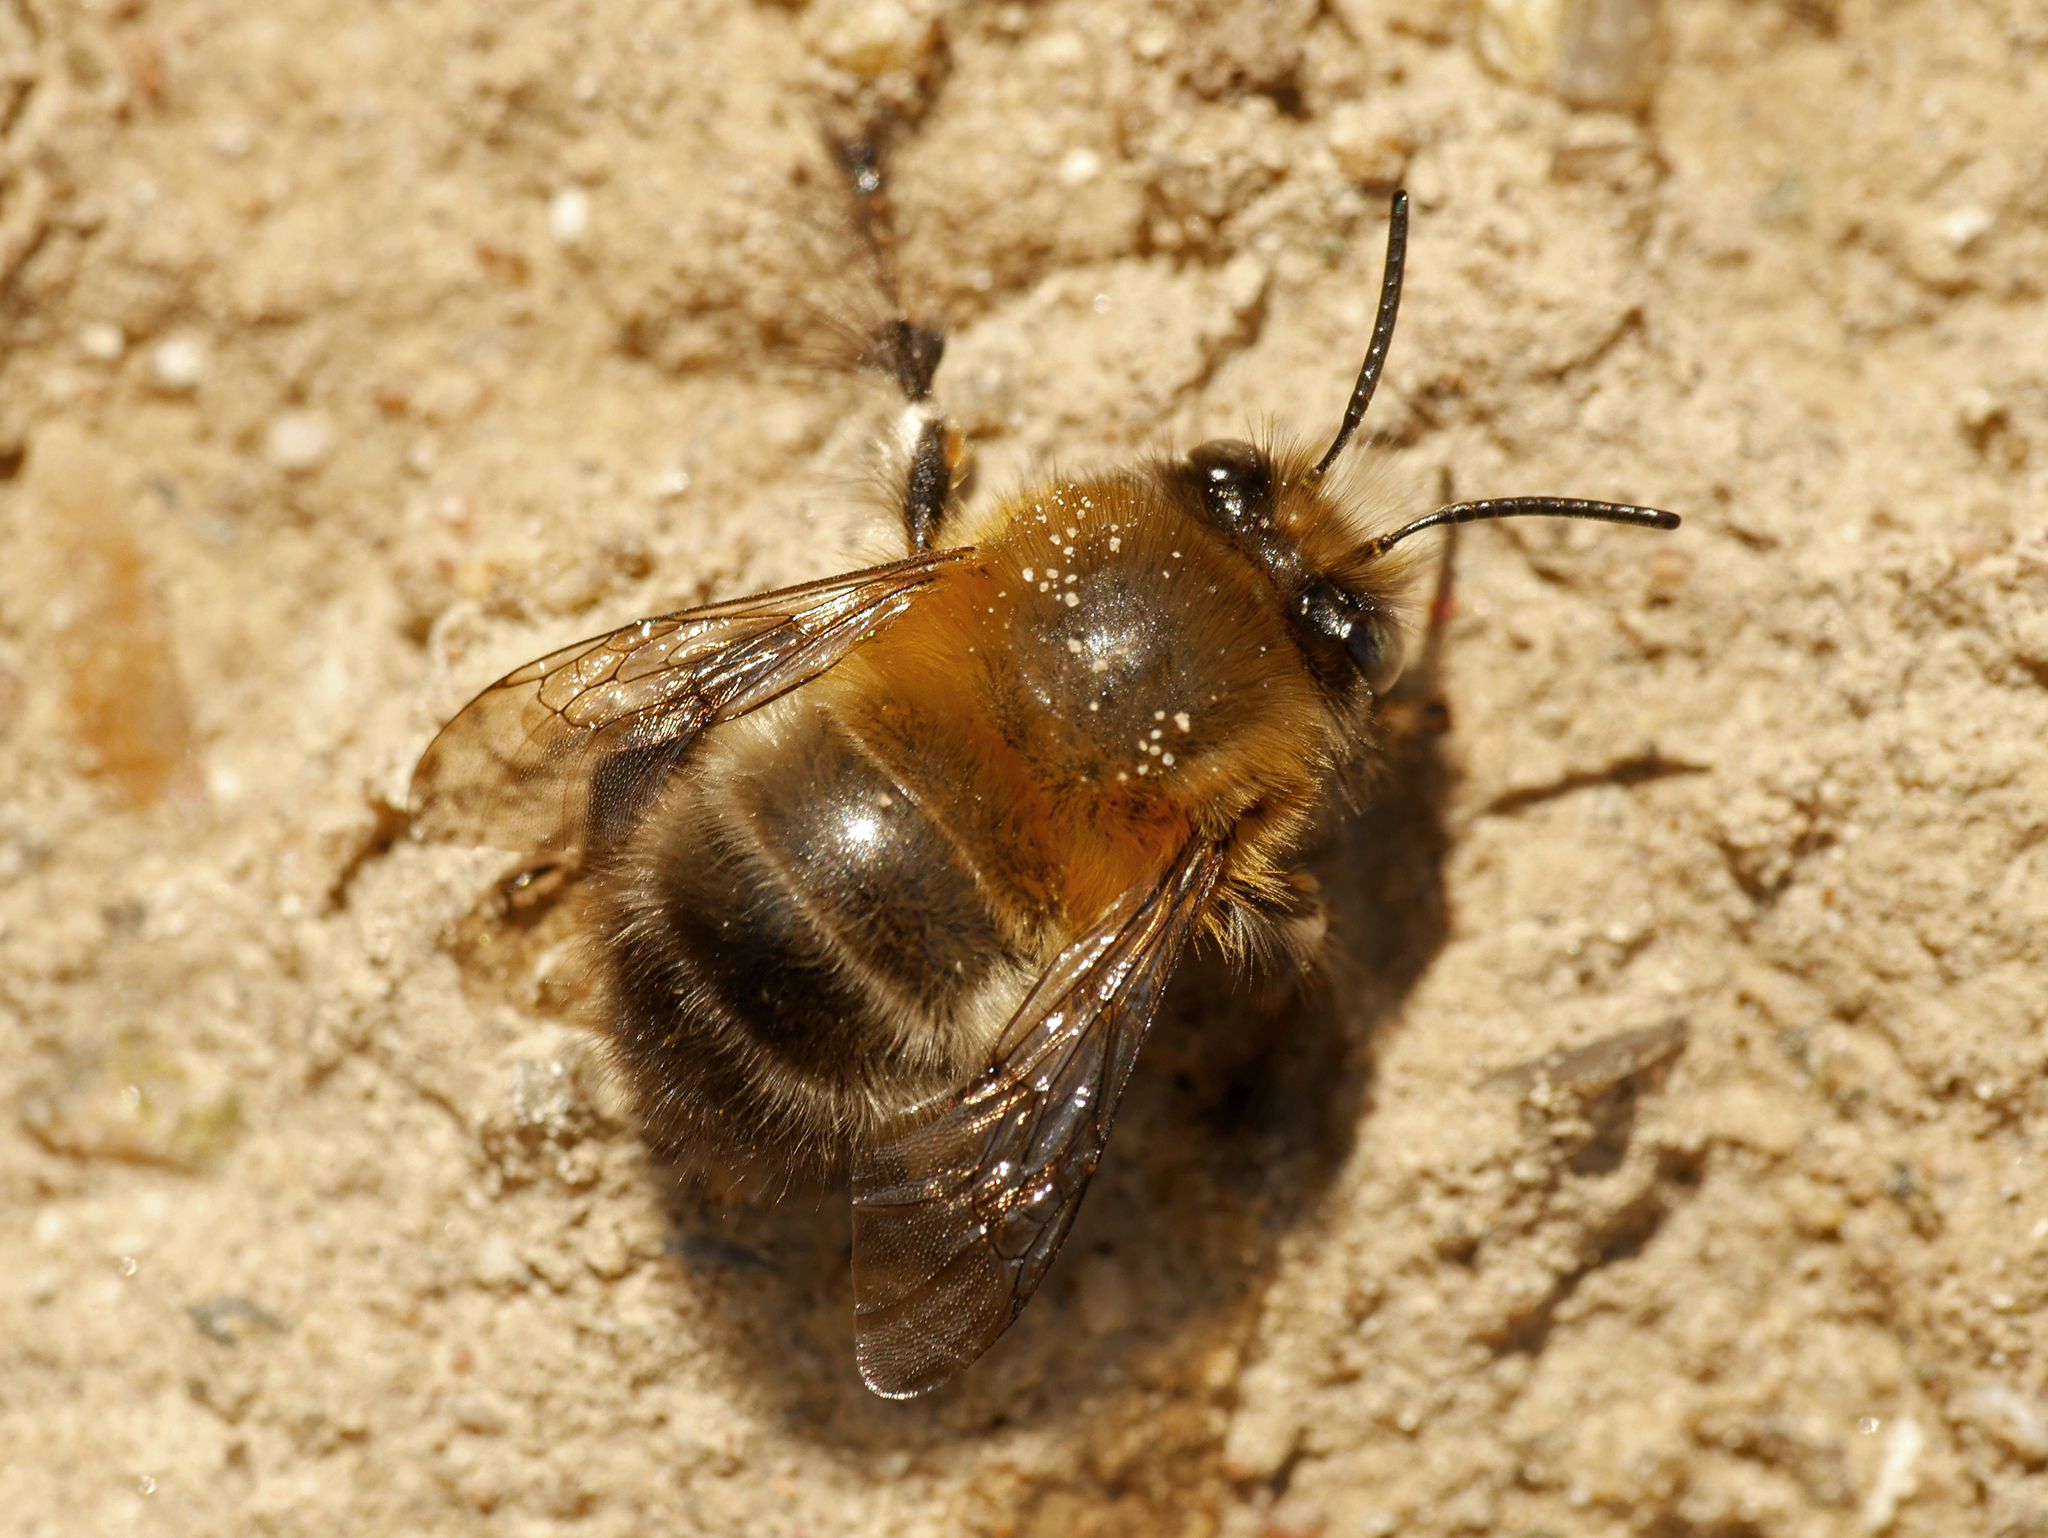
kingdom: Animalia
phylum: Arthropoda
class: Insecta
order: Hymenoptera
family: Apidae
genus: Anthophora
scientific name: Anthophora plumipes
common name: Hairy-footed flower bee
